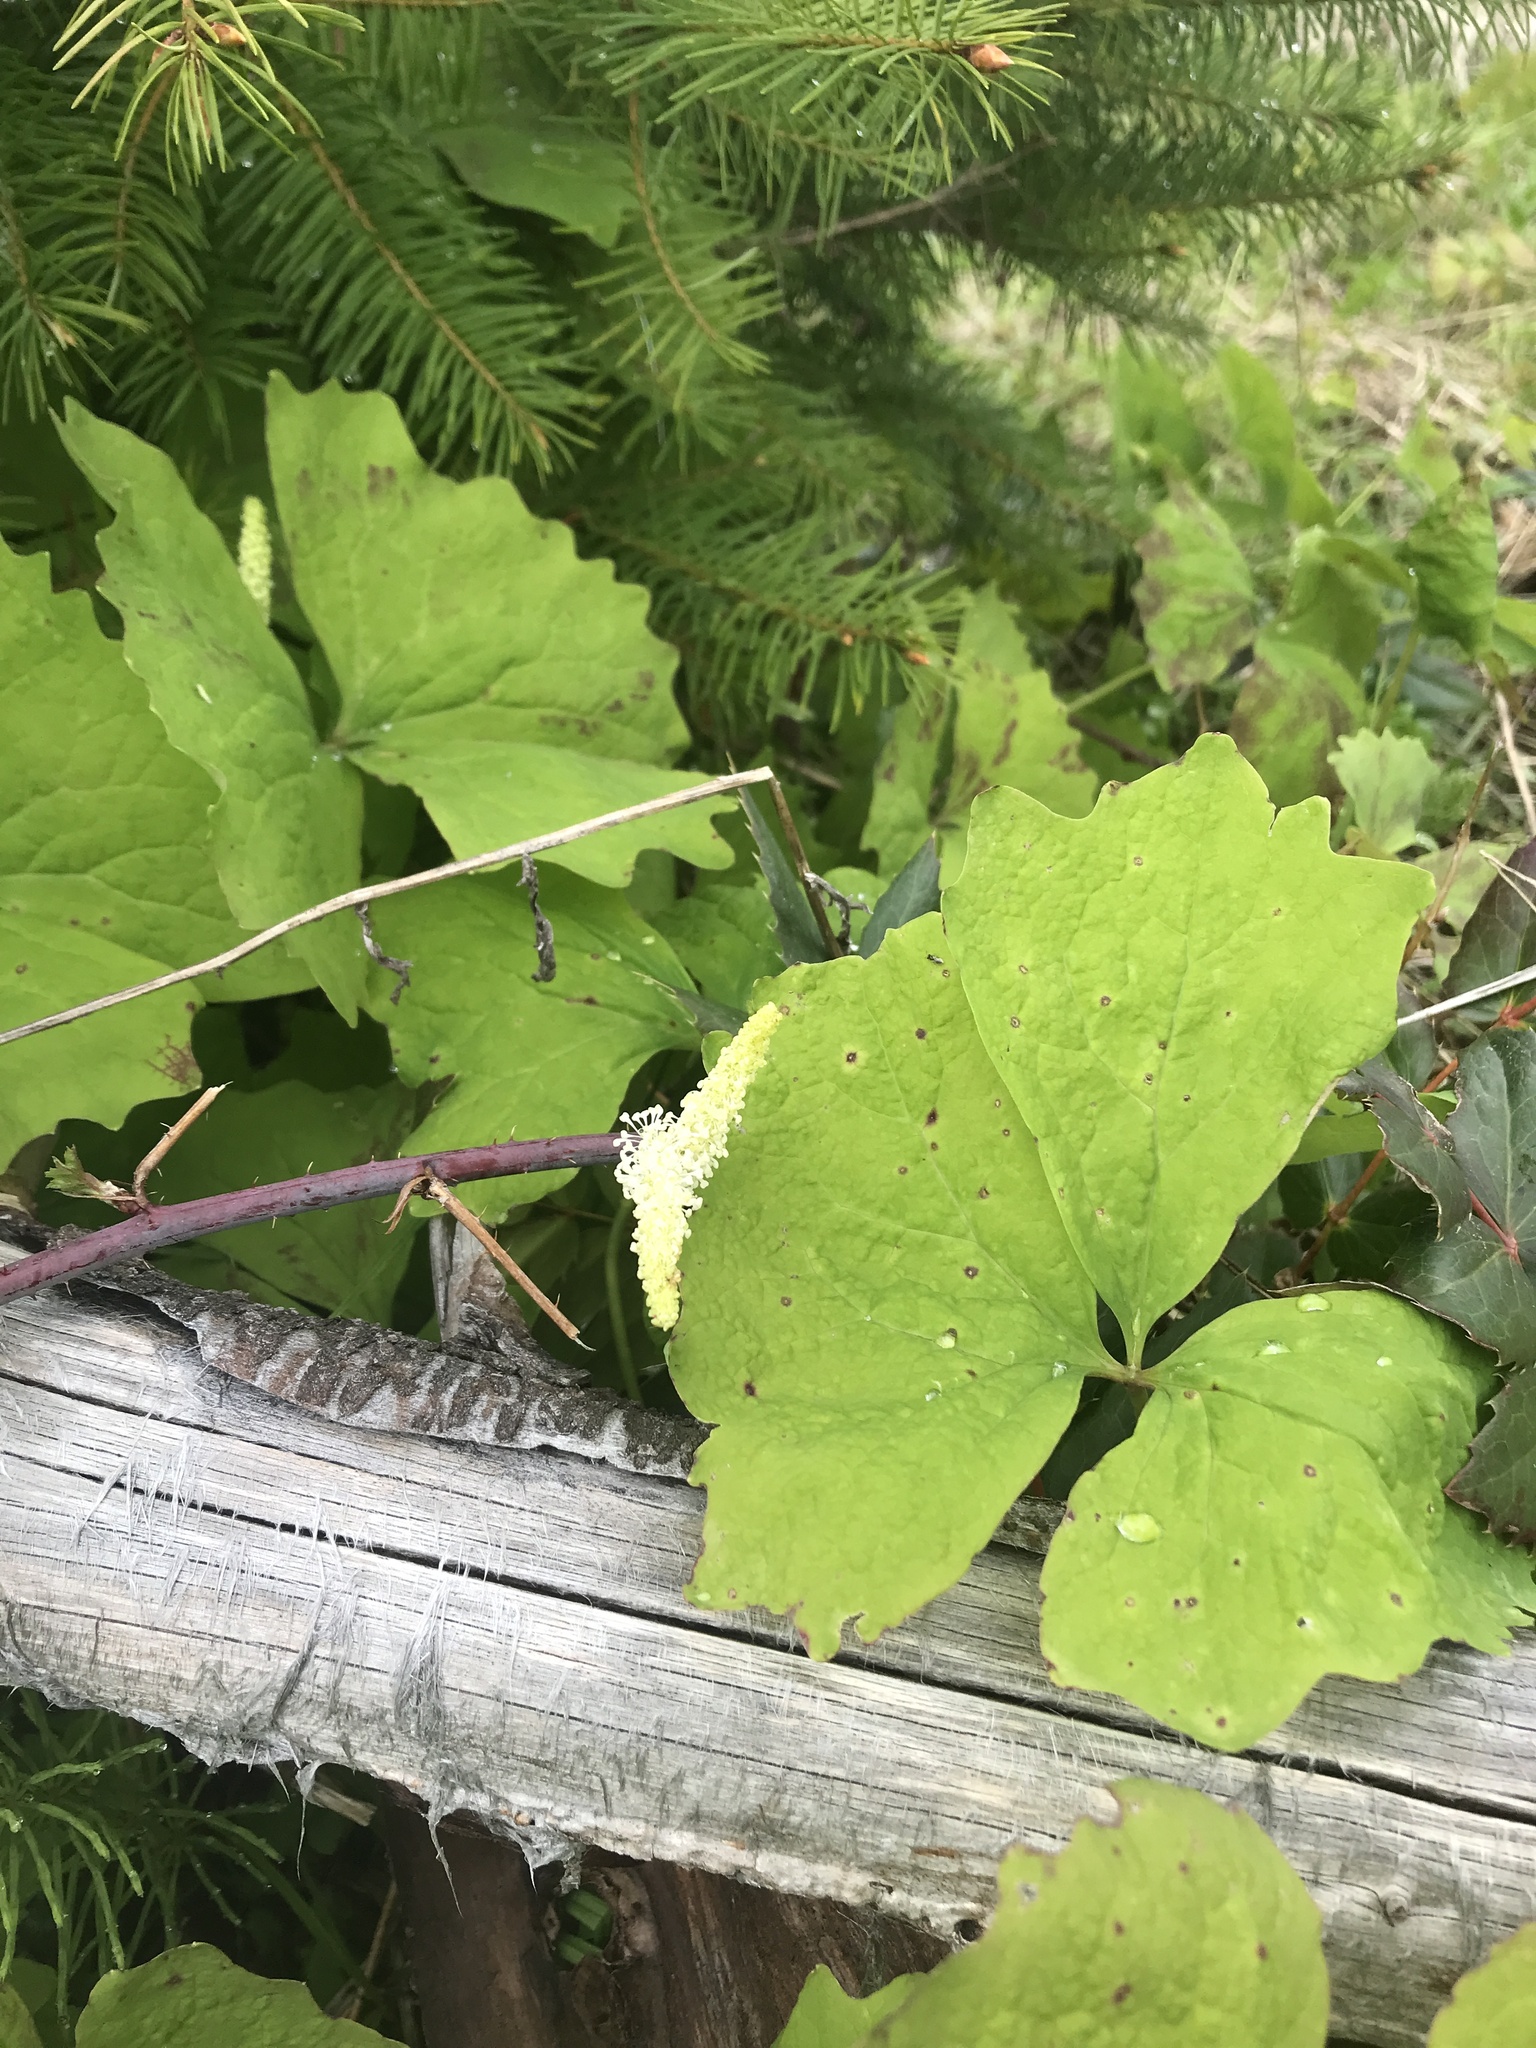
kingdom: Plantae
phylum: Tracheophyta
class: Magnoliopsida
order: Ranunculales
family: Berberidaceae
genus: Achlys
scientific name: Achlys triphylla
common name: Vanilla-leaf
